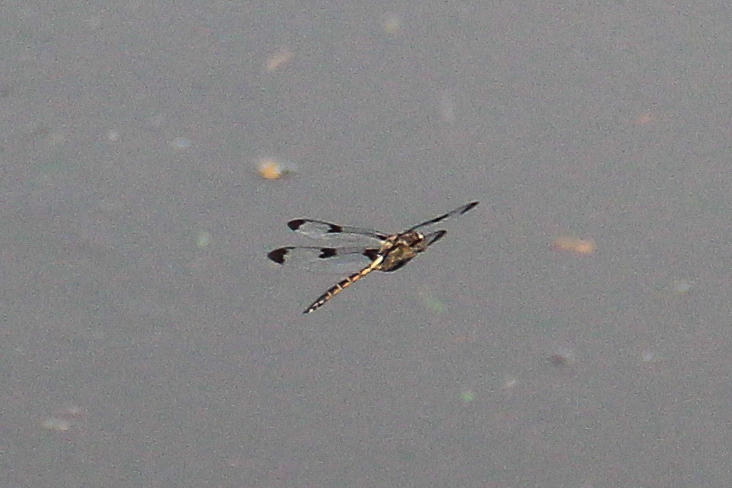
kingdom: Animalia
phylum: Arthropoda
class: Insecta
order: Odonata
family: Corduliidae
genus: Epitheca
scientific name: Epitheca princeps
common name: Prince baskettail
